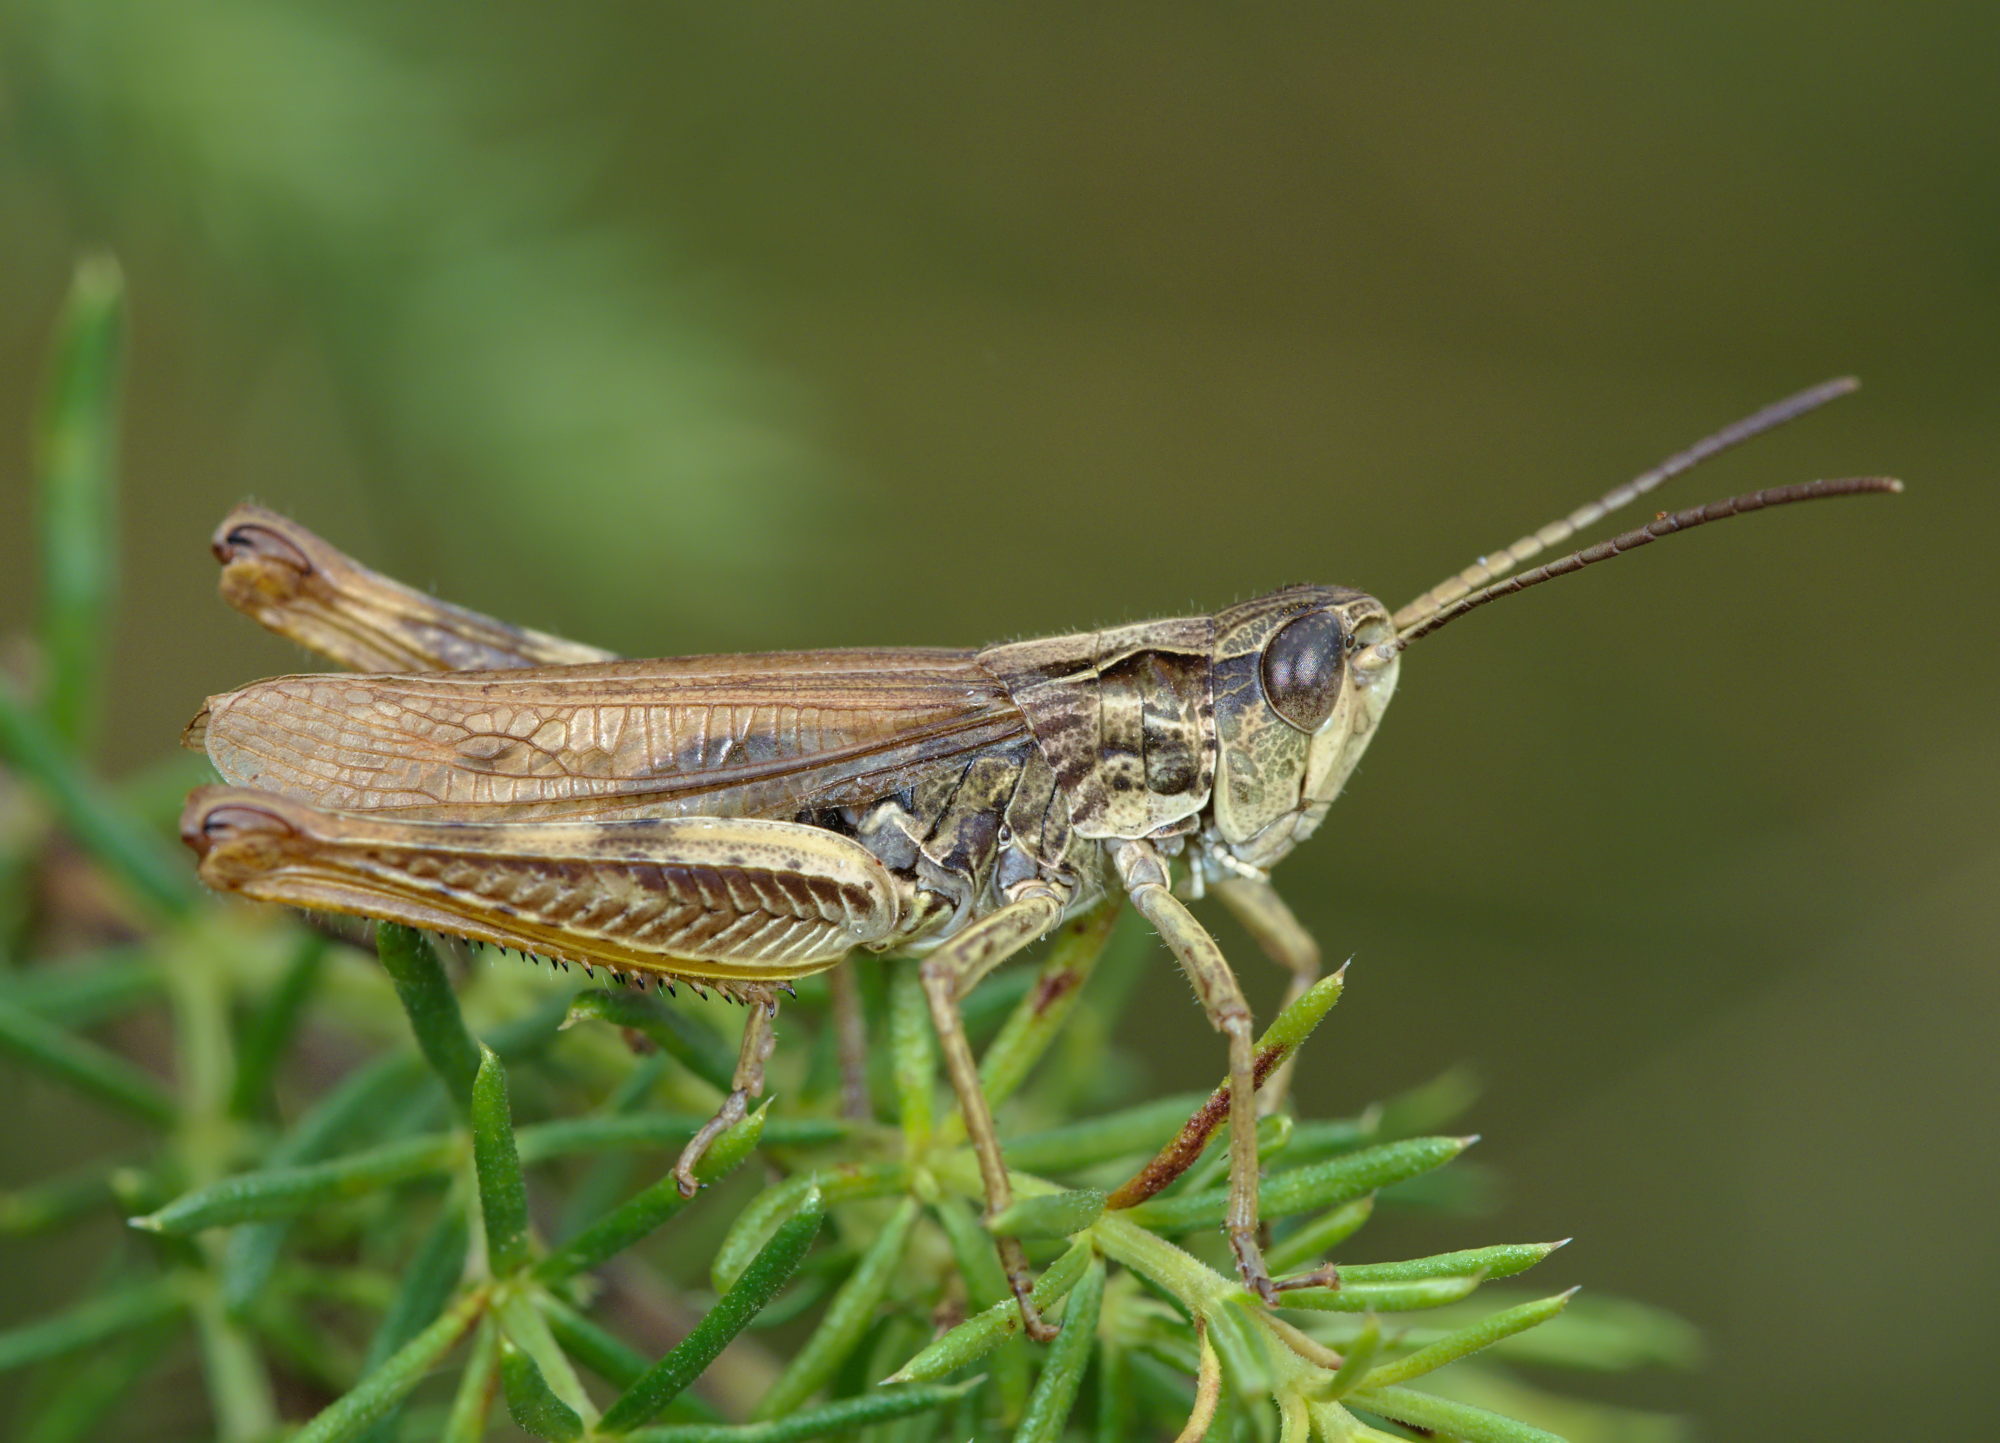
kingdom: Animalia
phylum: Arthropoda
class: Insecta
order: Orthoptera
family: Acrididae
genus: Chorthippus
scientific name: Chorthippus apricarius
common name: Upland field grasshopper
